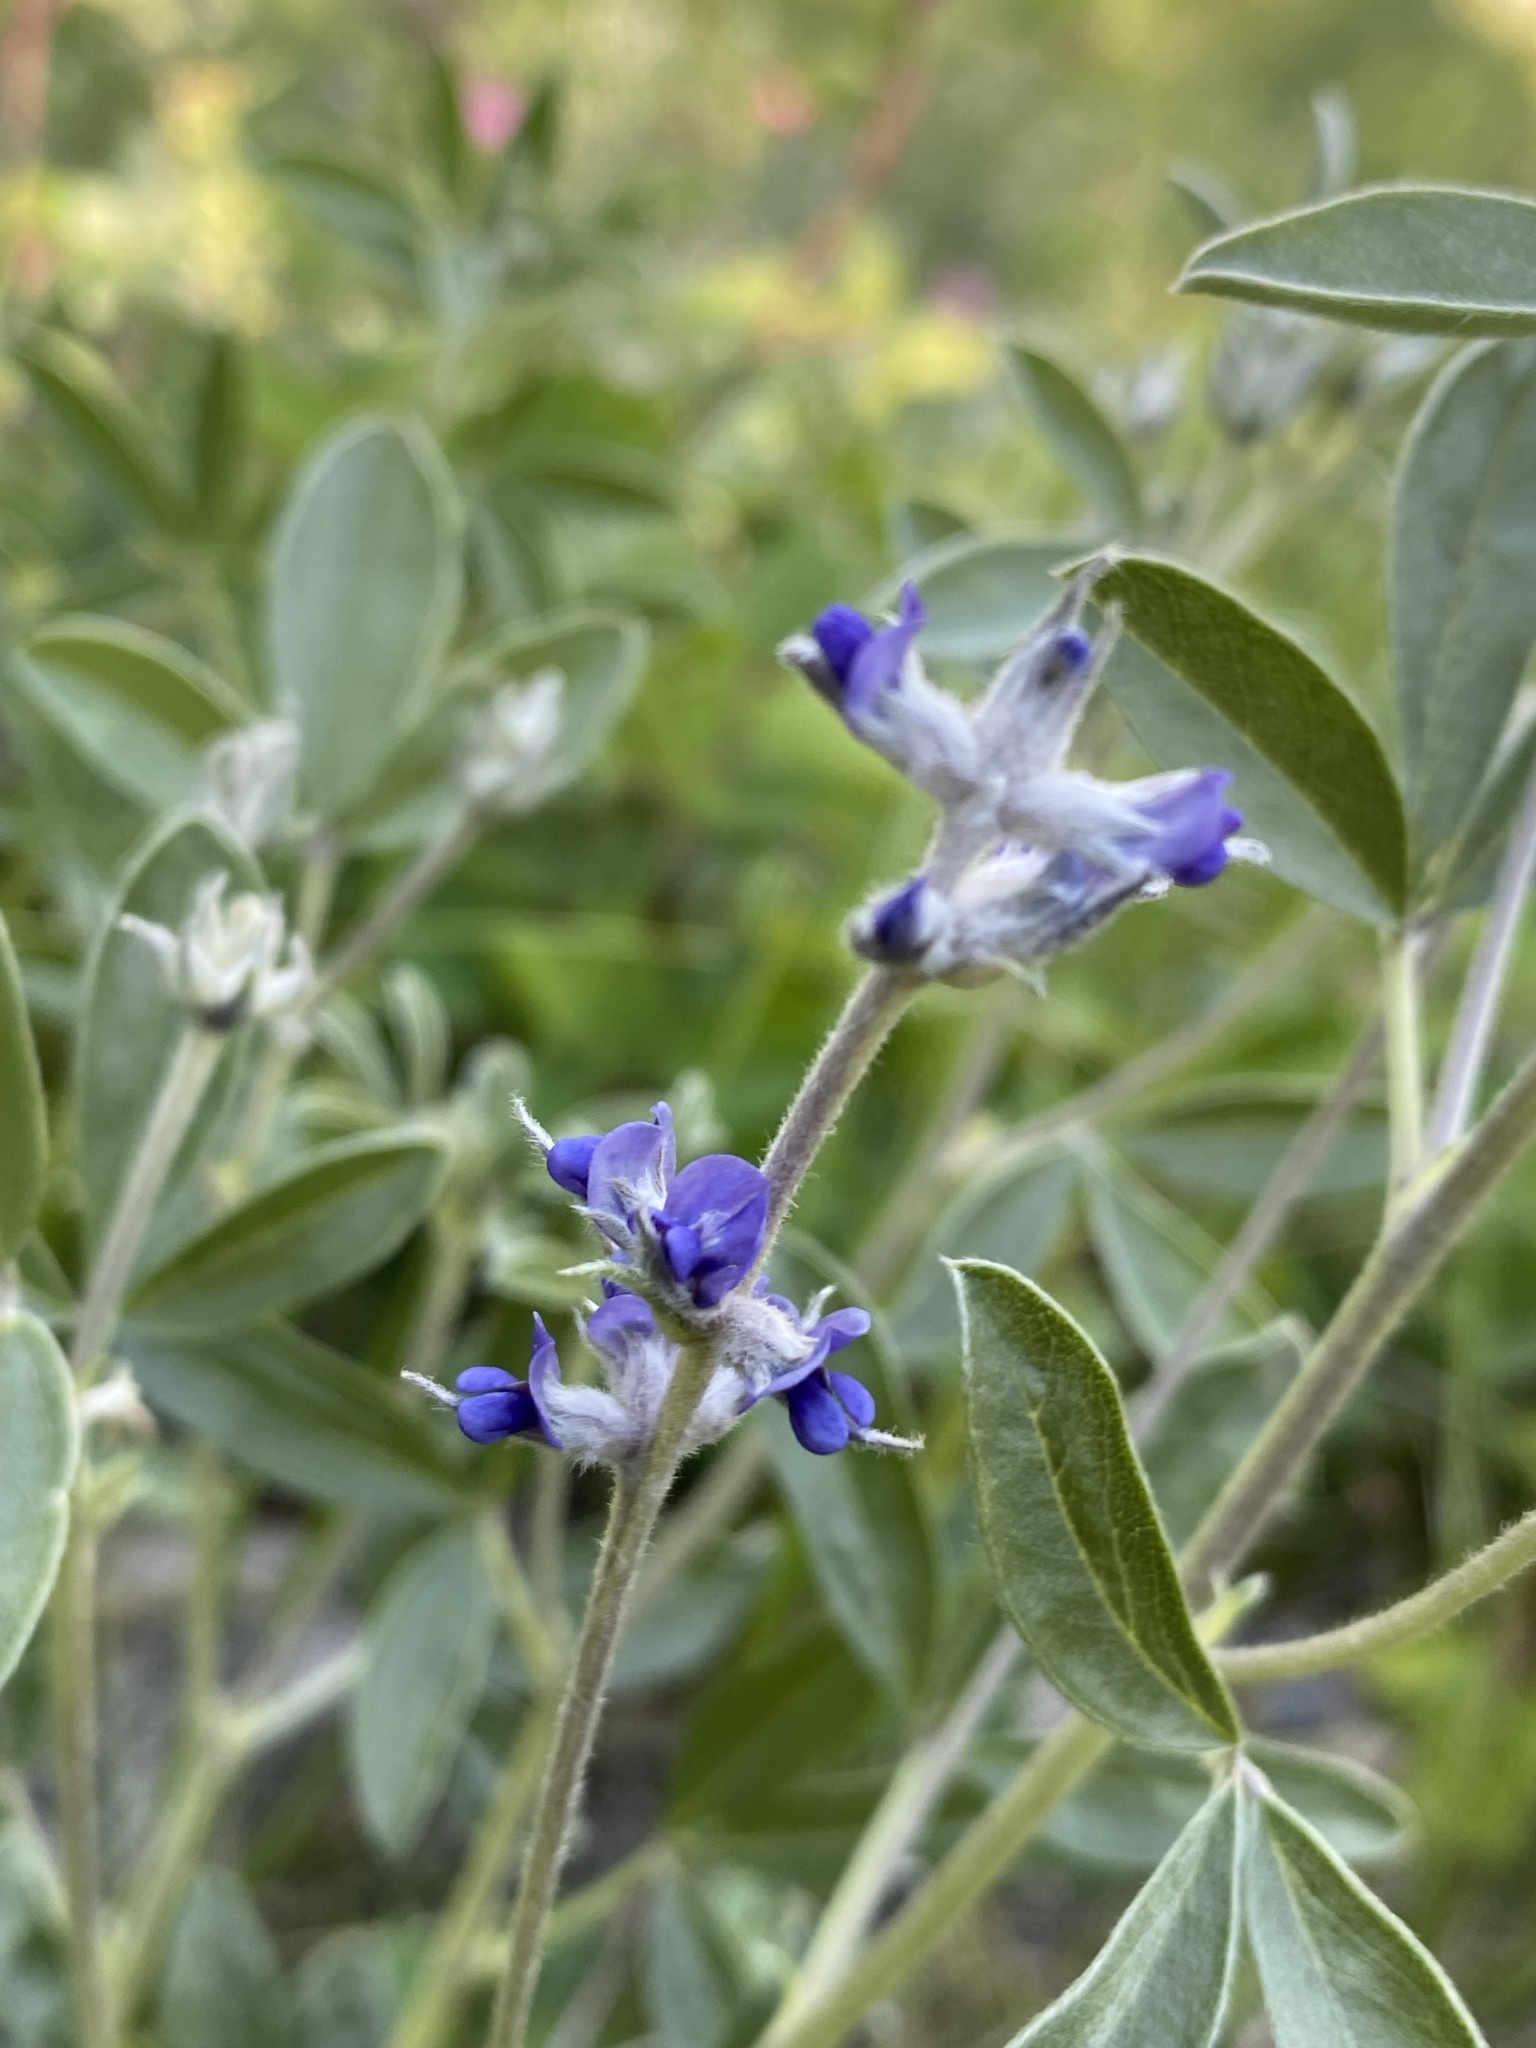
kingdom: Plantae
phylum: Tracheophyta
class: Magnoliopsida
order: Fabales
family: Fabaceae
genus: Pediomelum
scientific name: Pediomelum argophyllum
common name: Silver-leaved indian breadroot
